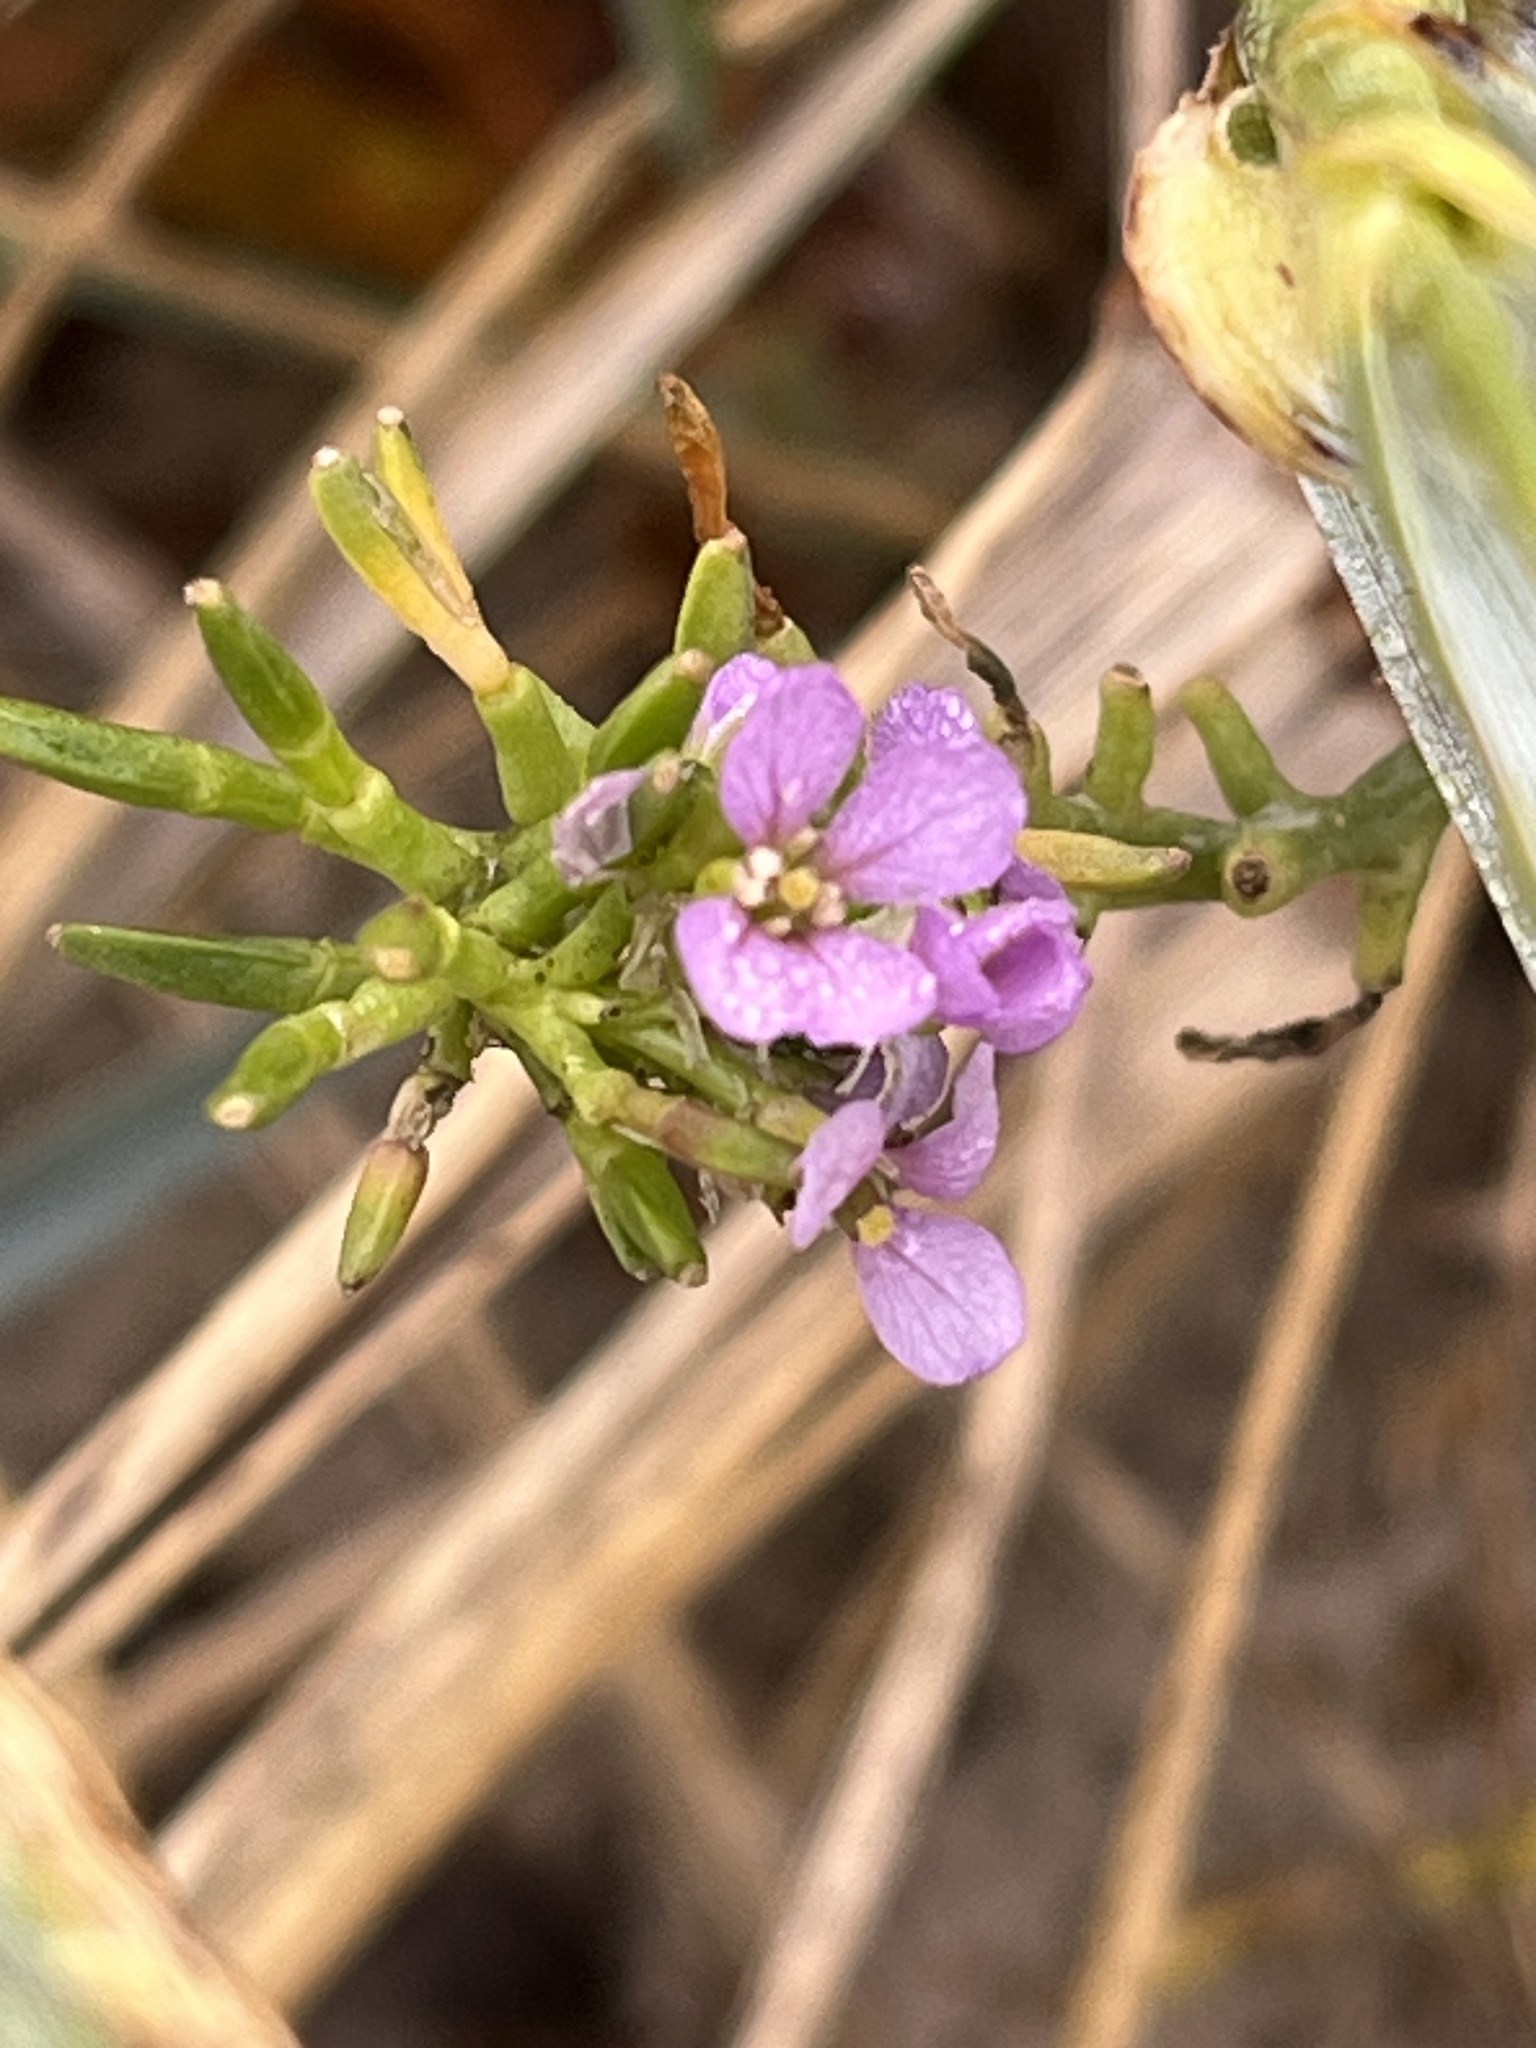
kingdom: Plantae
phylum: Tracheophyta
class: Magnoliopsida
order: Brassicales
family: Brassicaceae
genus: Cakile
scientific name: Cakile maritima
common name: Sea rocket
